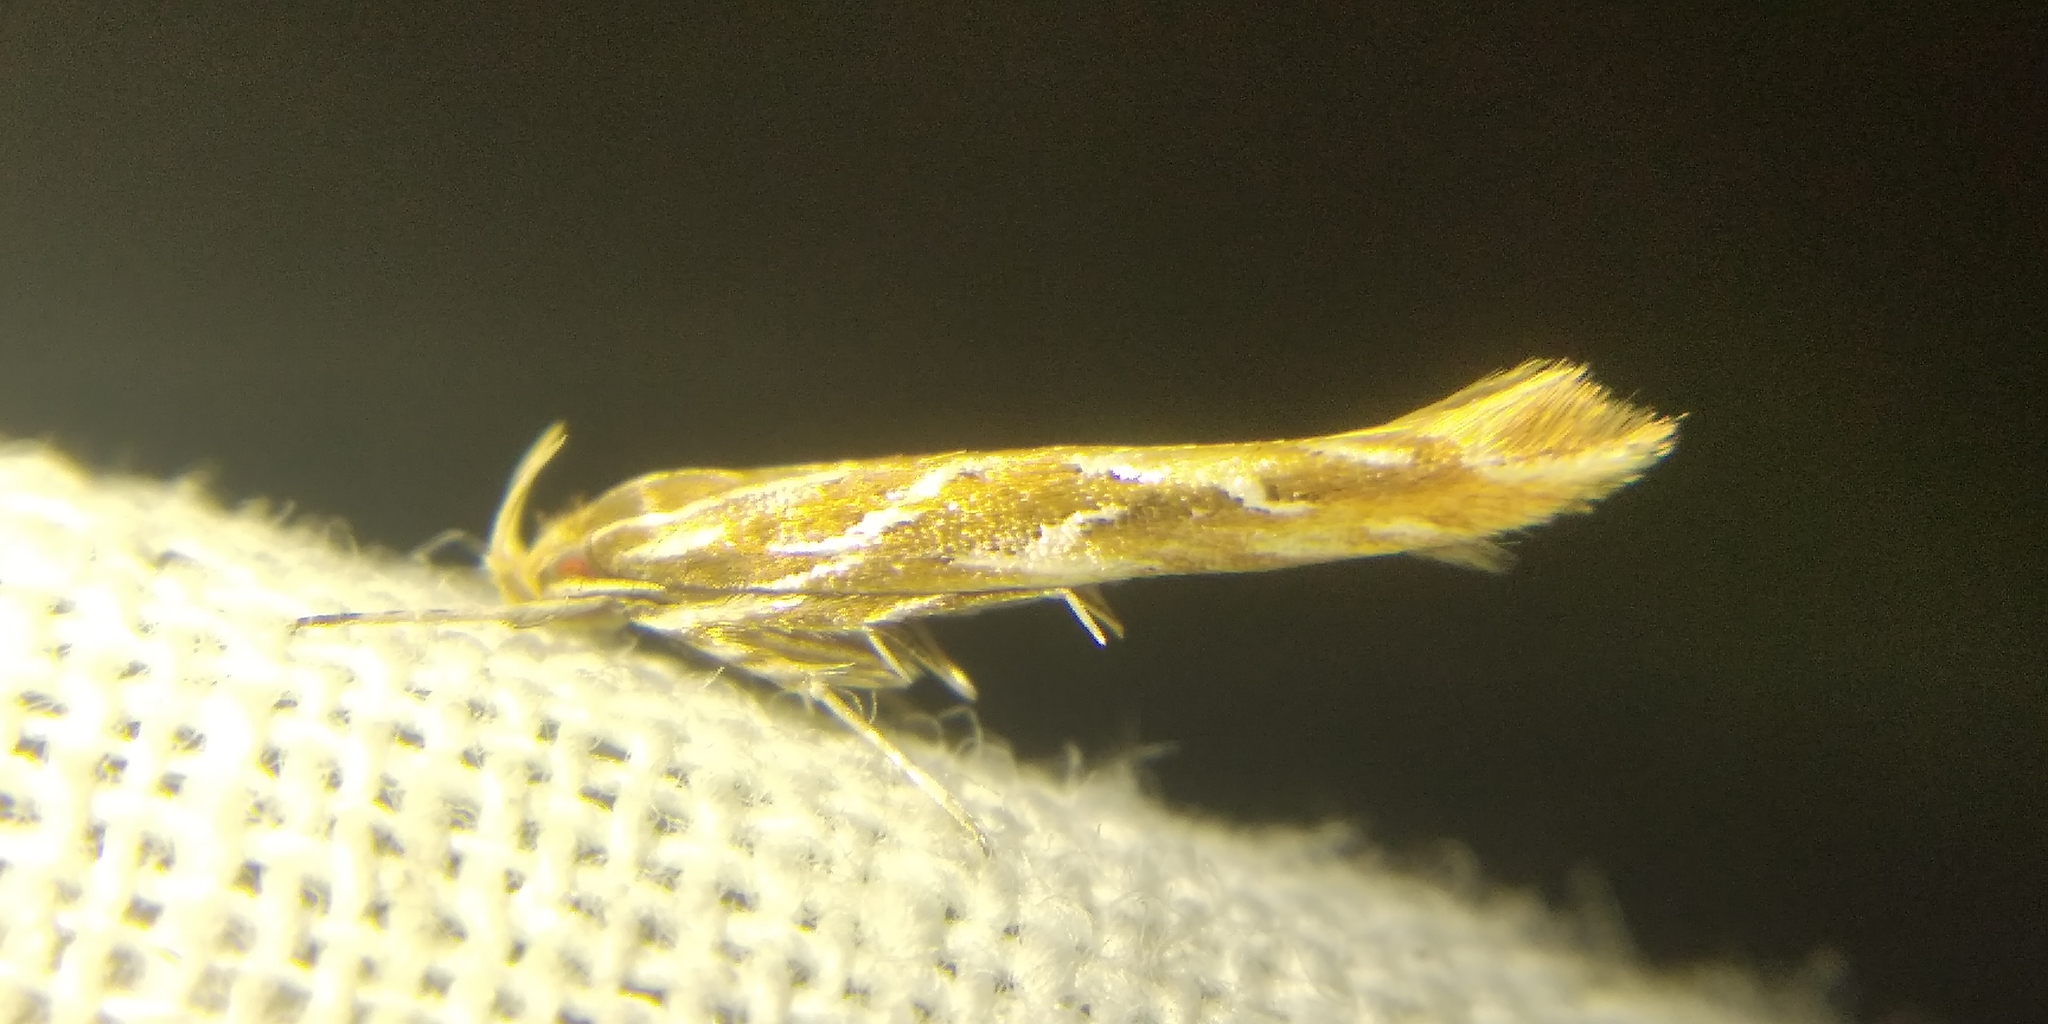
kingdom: Animalia
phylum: Arthropoda
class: Insecta
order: Lepidoptera
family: Cosmopterigidae
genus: Pyroderces
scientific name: Pyroderces argyrogrammos
